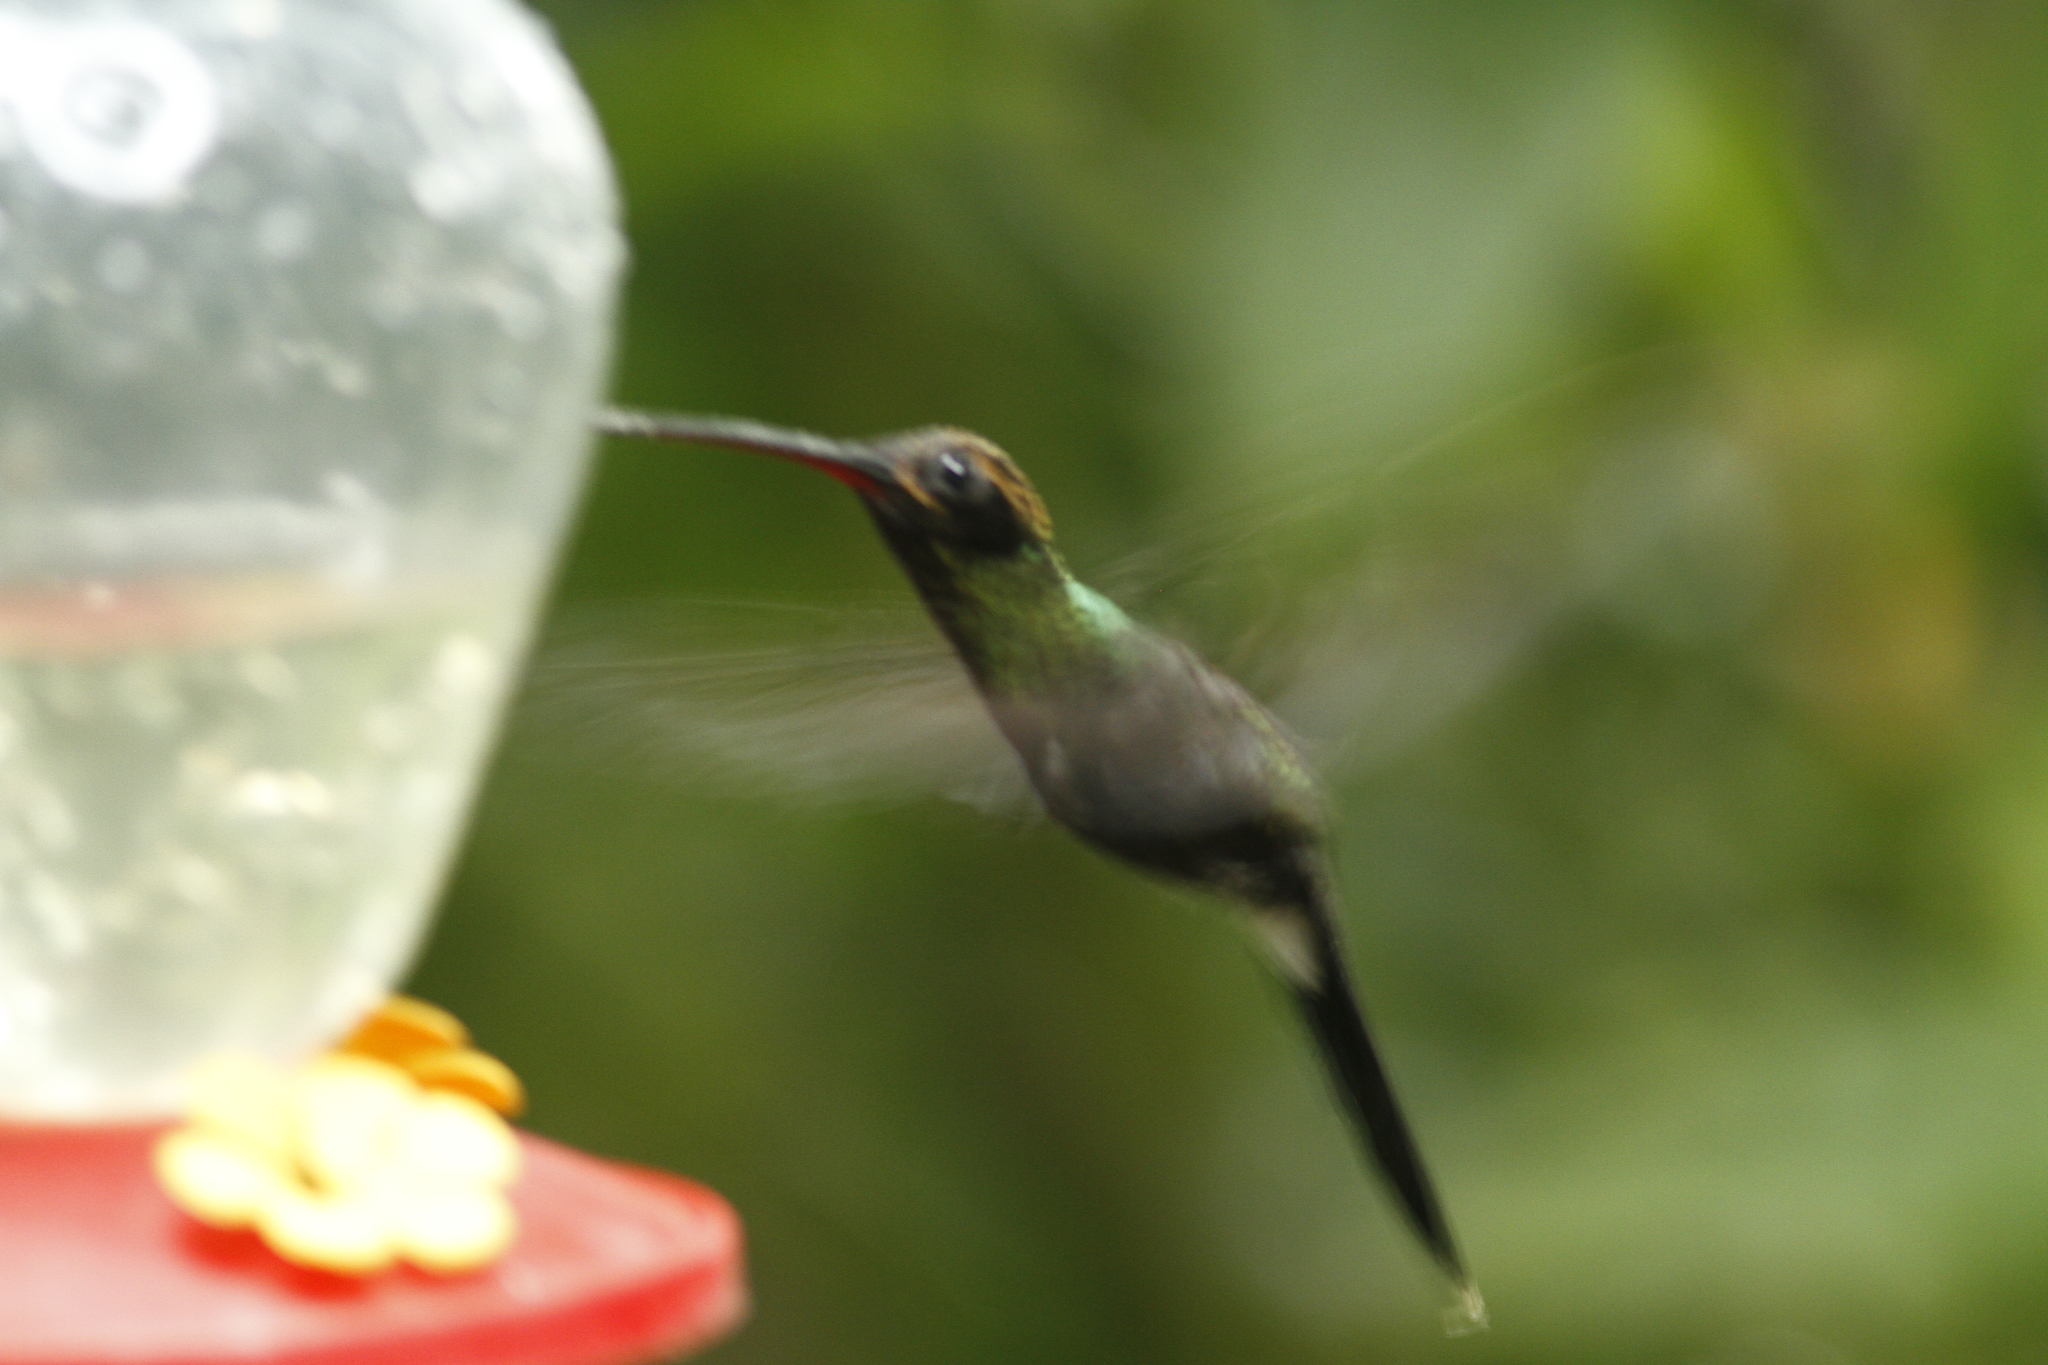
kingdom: Animalia
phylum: Chordata
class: Aves
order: Apodiformes
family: Trochilidae
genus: Phaethornis
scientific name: Phaethornis yaruqui
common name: White-whiskered hermit
